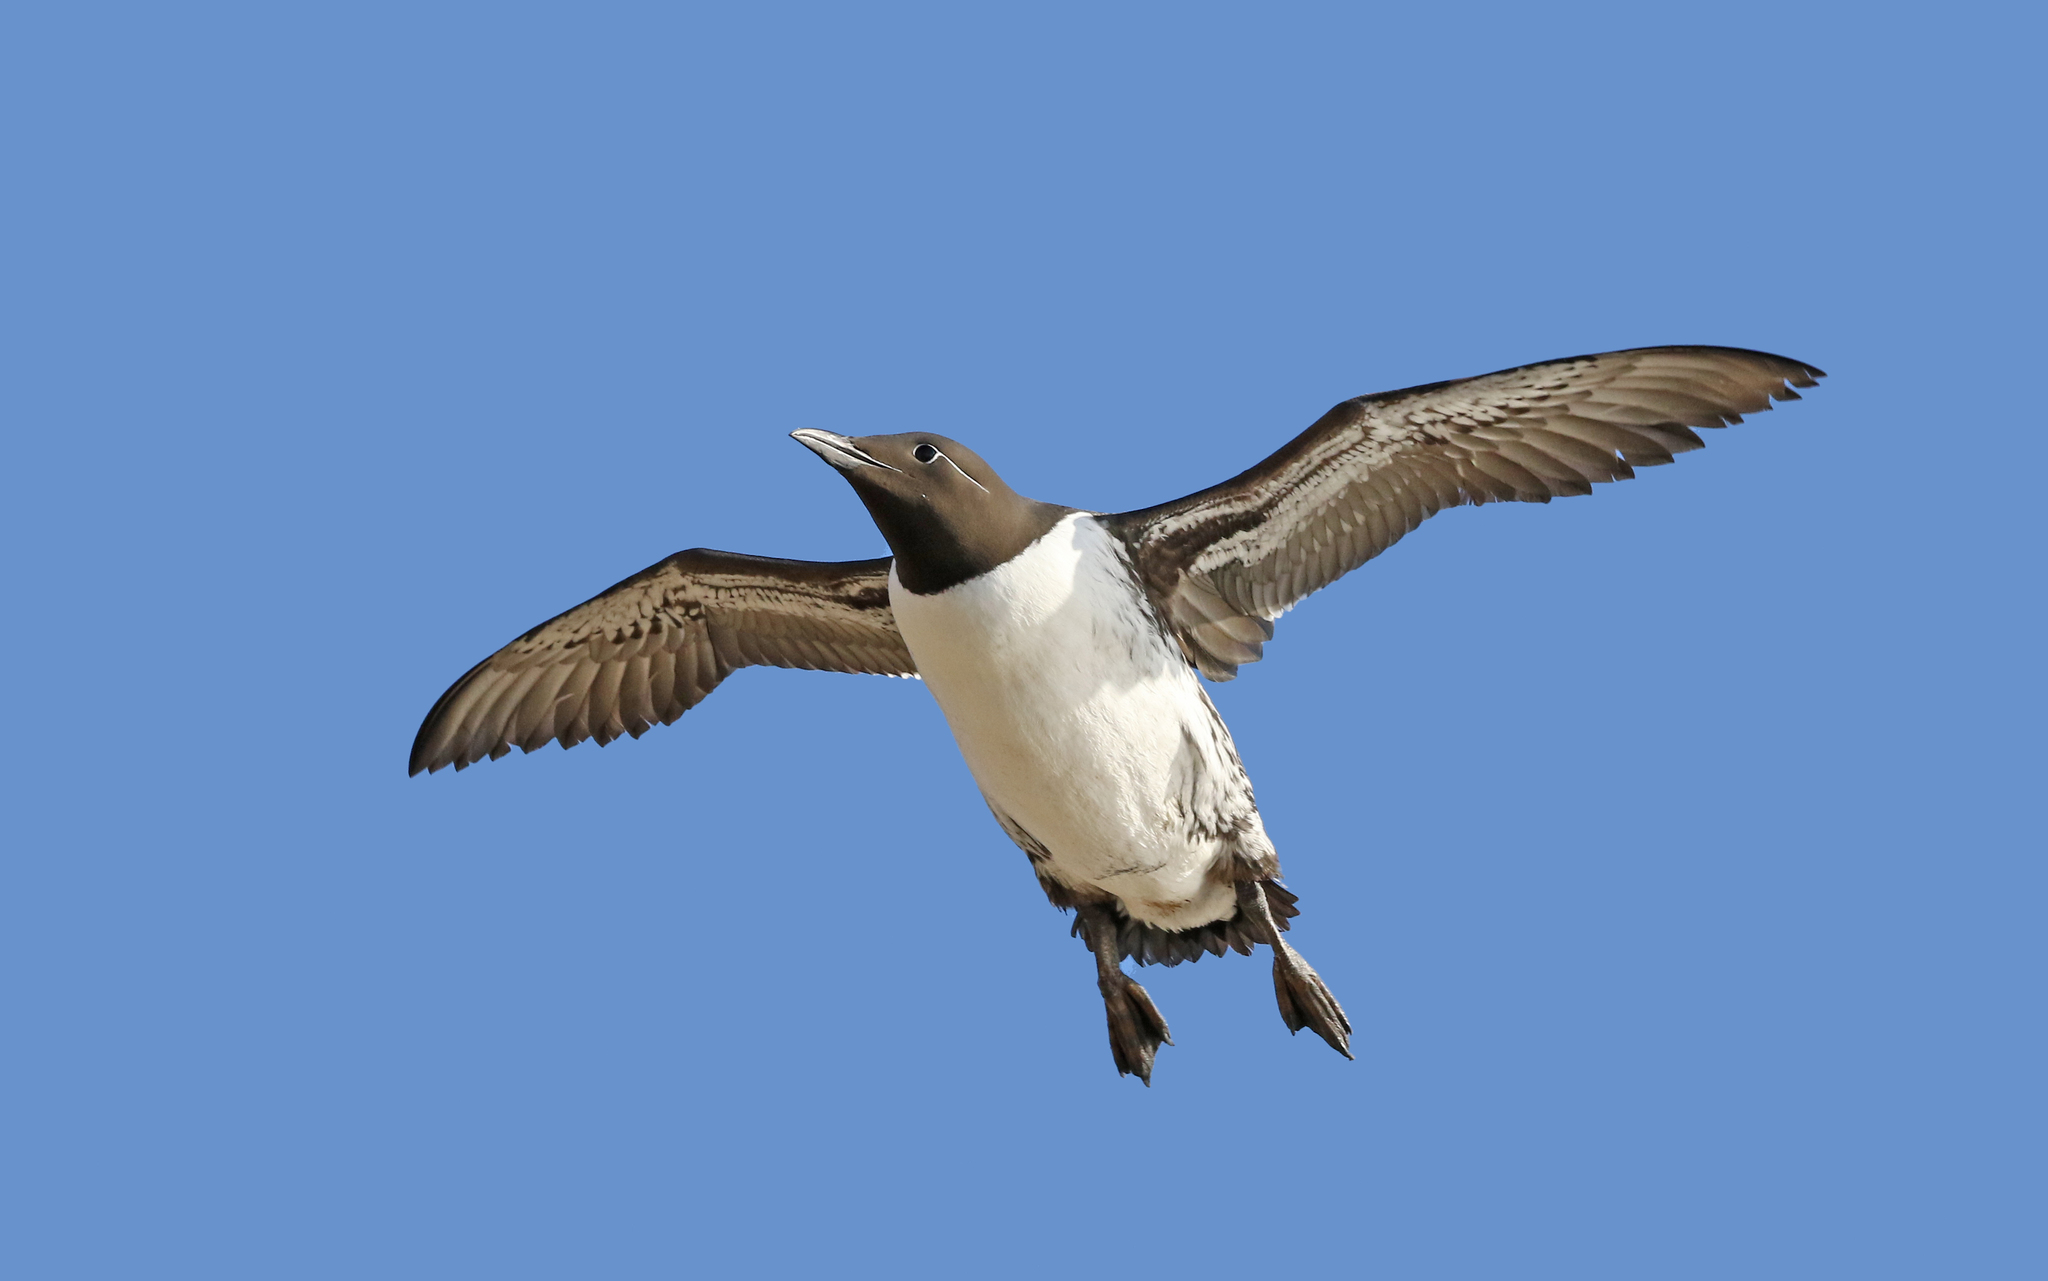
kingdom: Animalia
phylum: Chordata
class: Aves
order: Charadriiformes
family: Alcidae
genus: Uria
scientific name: Uria aalge
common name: Common murre
